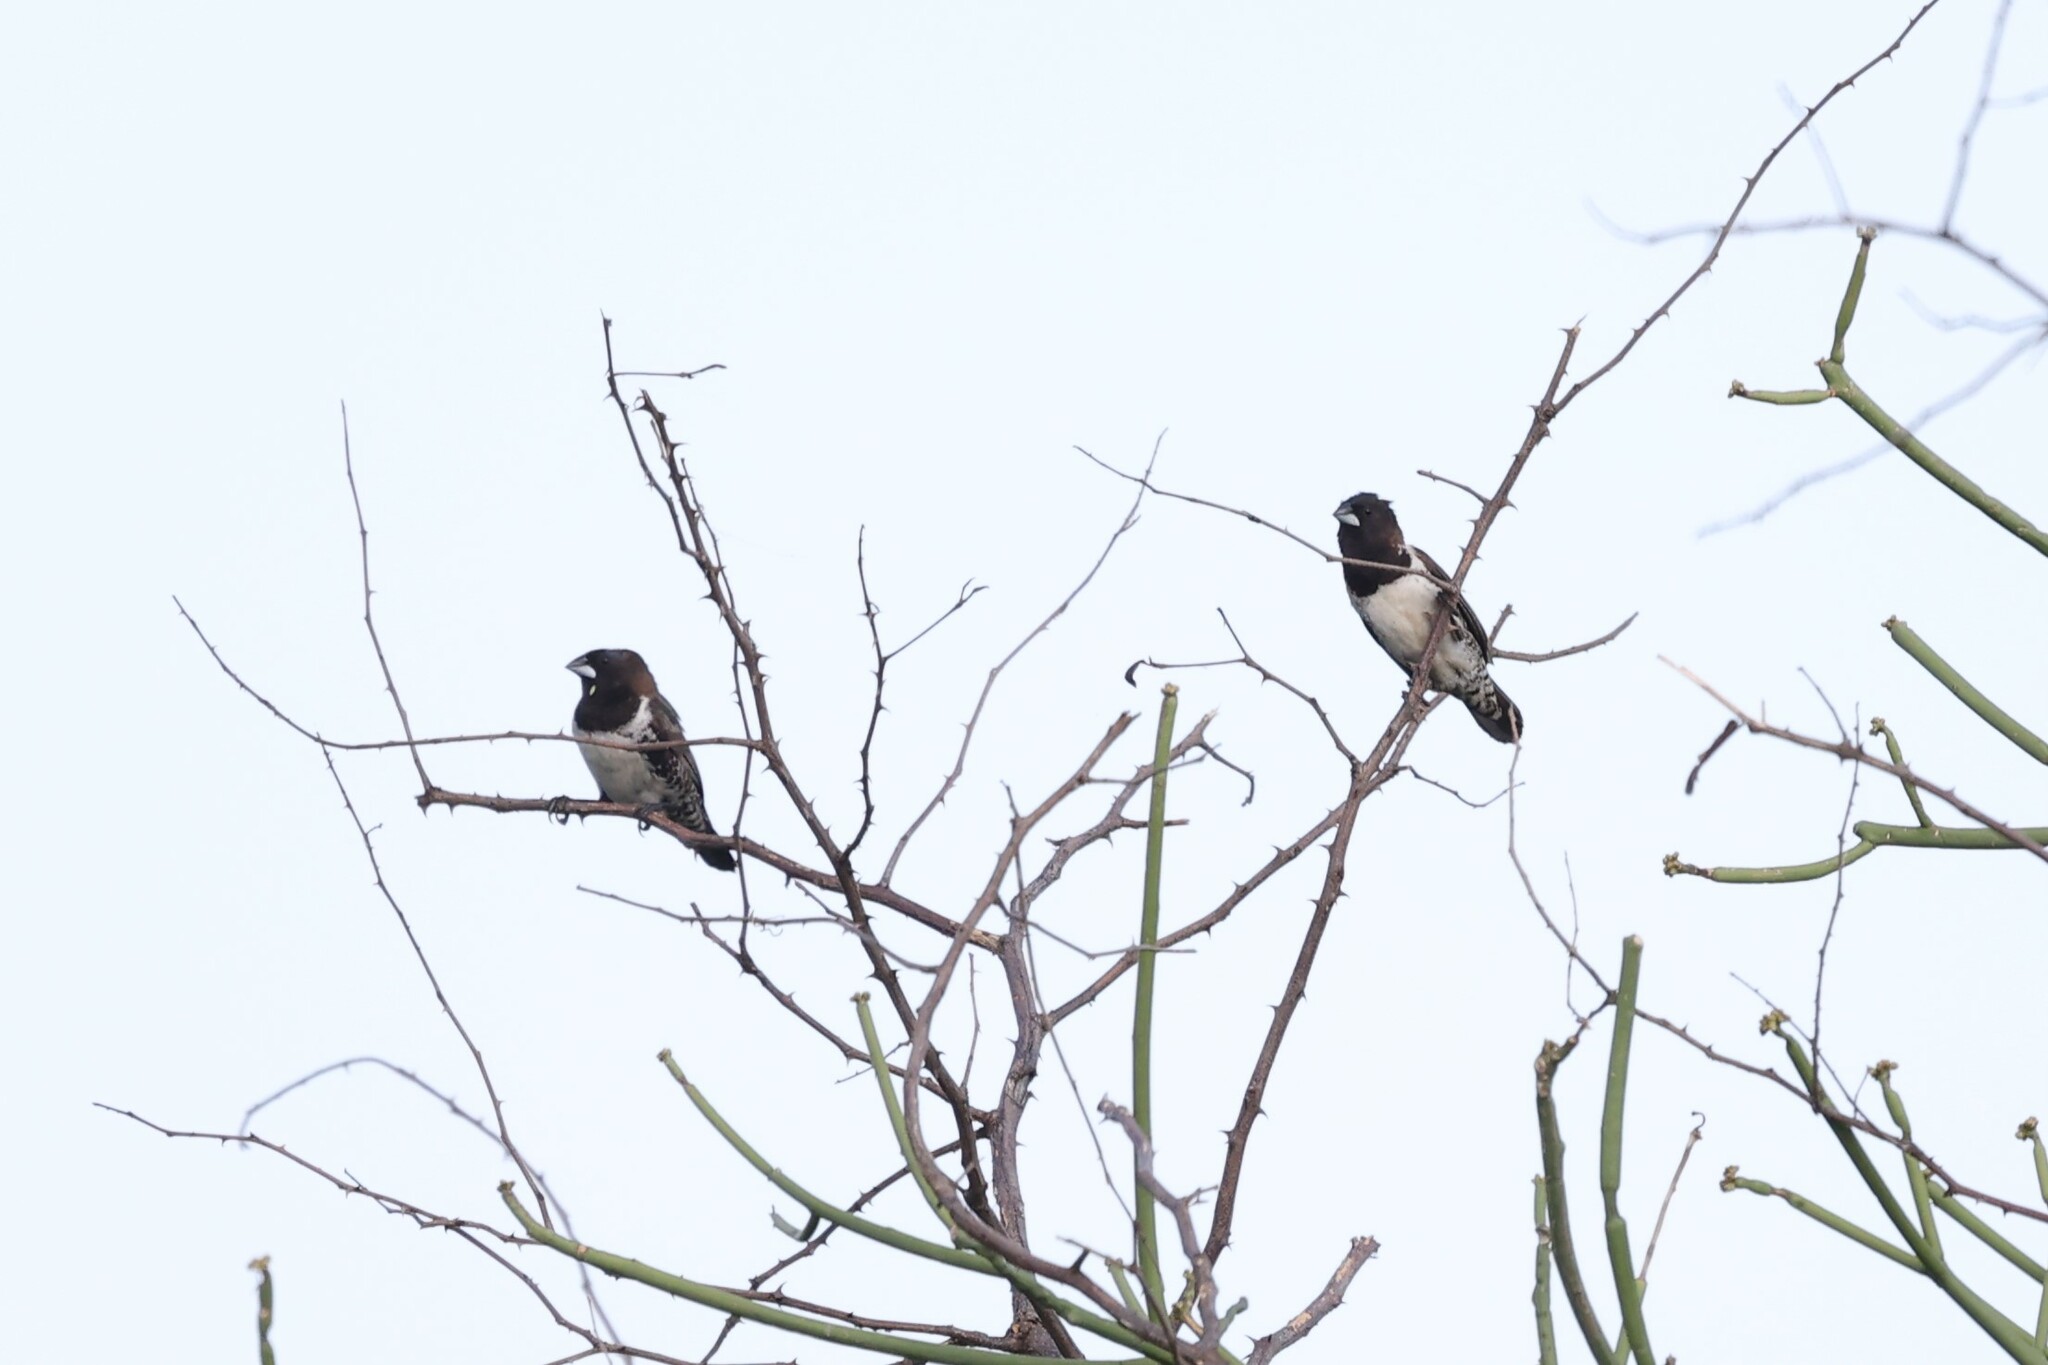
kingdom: Animalia
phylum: Chordata
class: Aves
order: Passeriformes
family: Estrildidae
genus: Lonchura
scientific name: Lonchura cucullata
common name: Bronze mannikin
